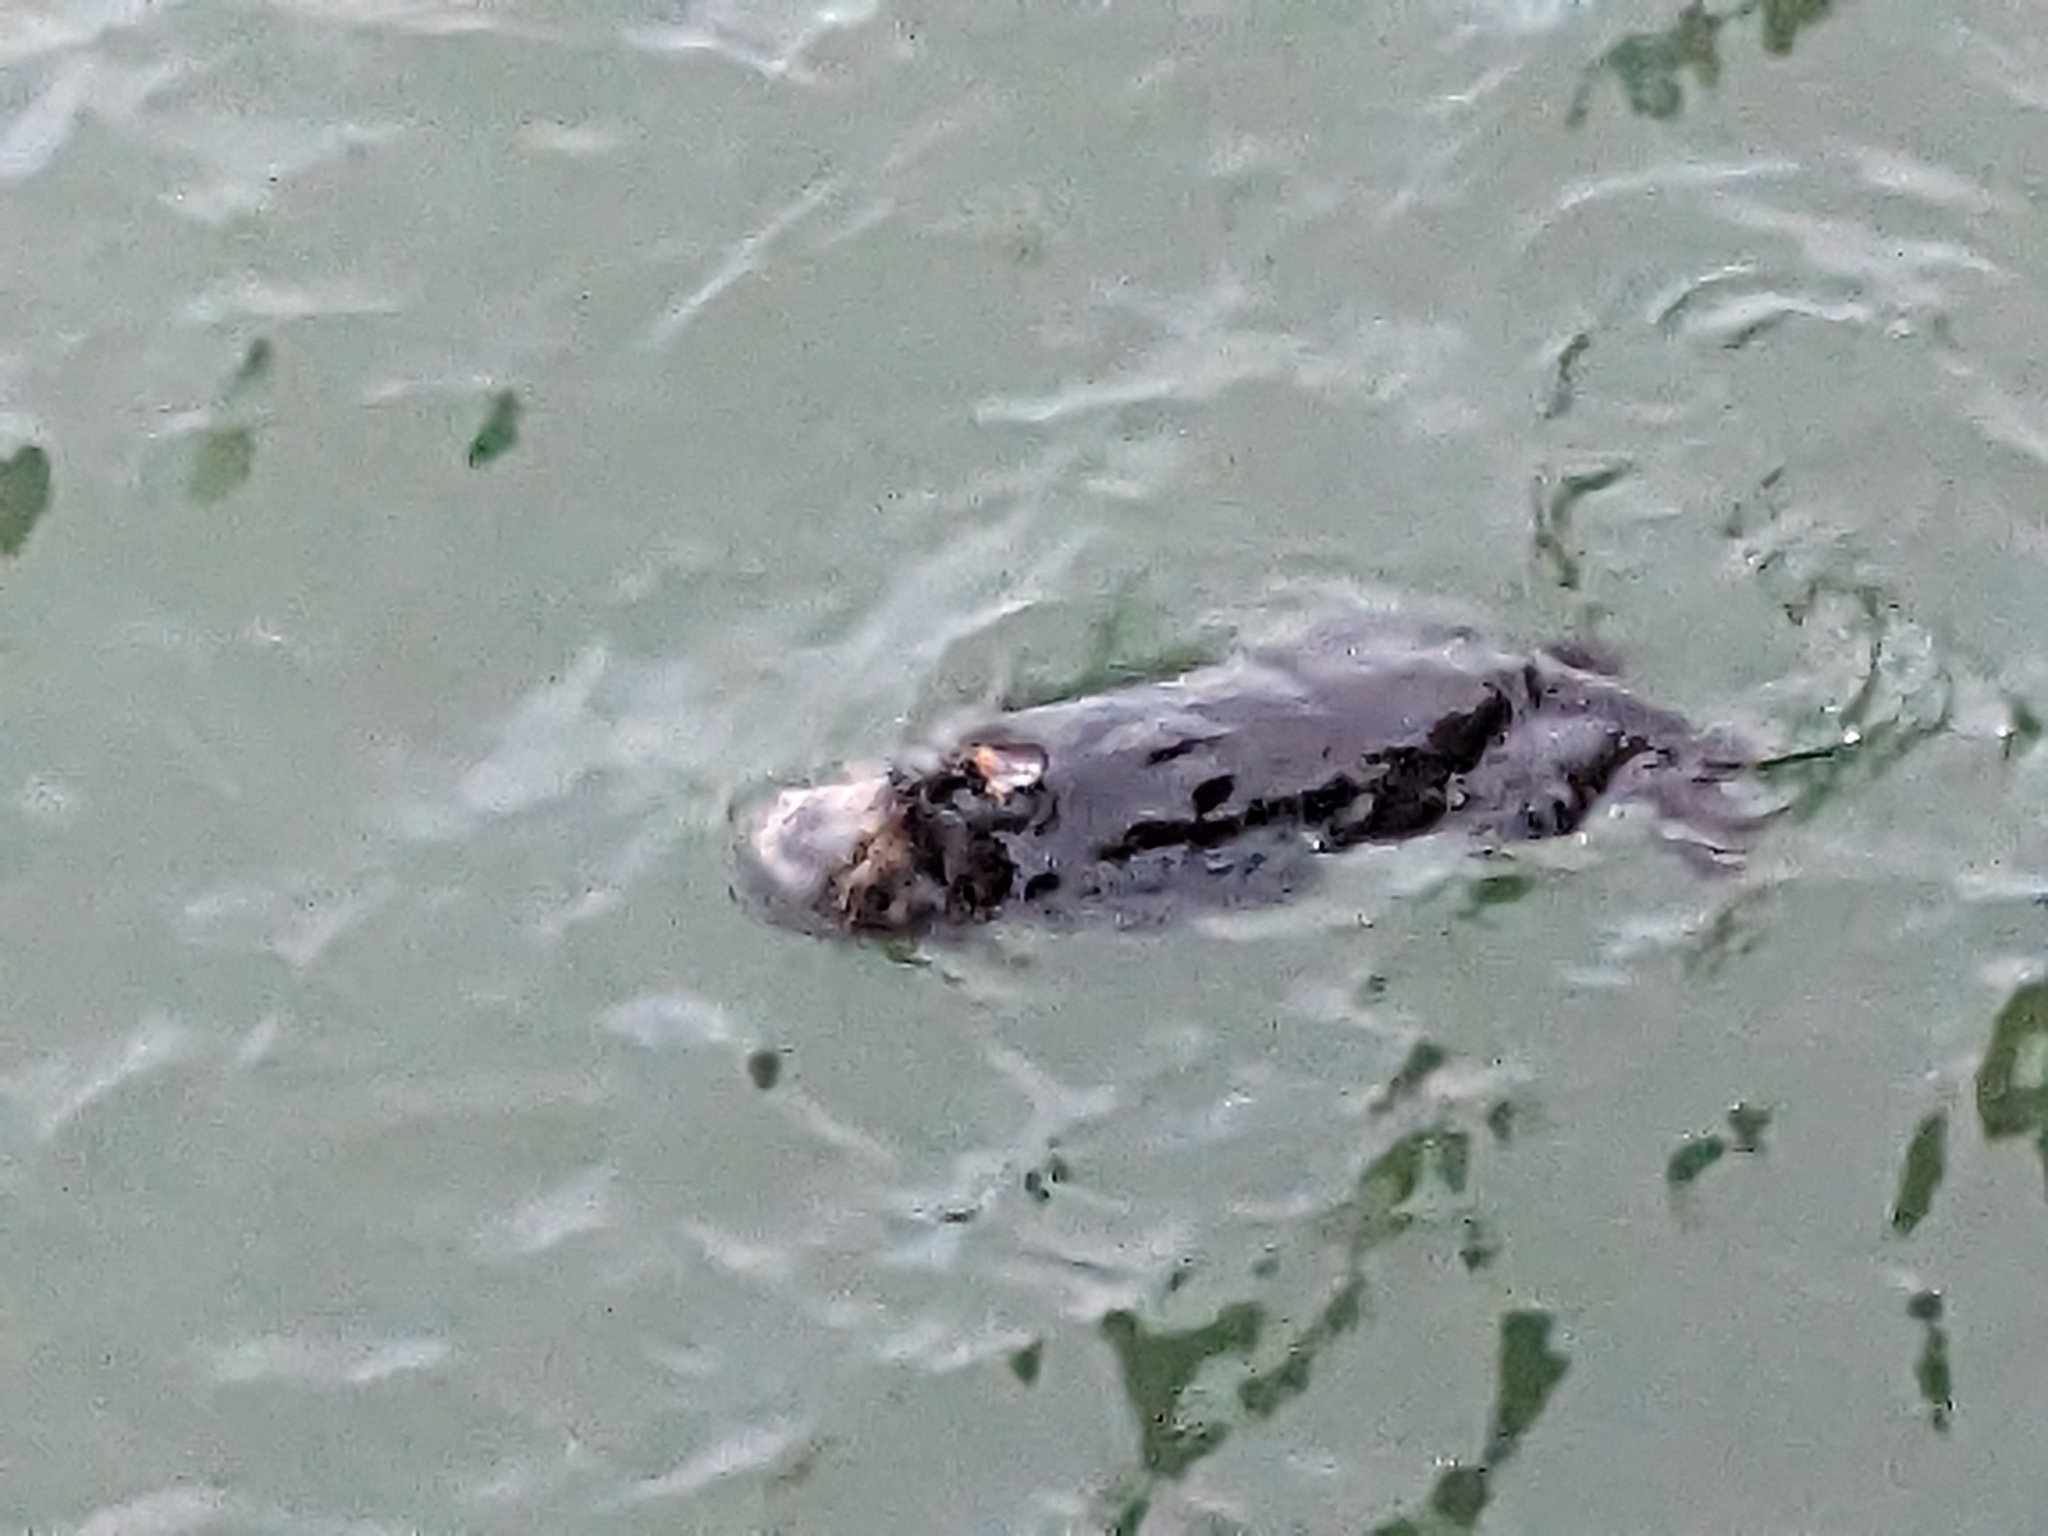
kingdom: Animalia
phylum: Chordata
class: Mammalia
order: Carnivora
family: Mustelidae
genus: Enhydra
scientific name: Enhydra lutris
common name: Sea otter
